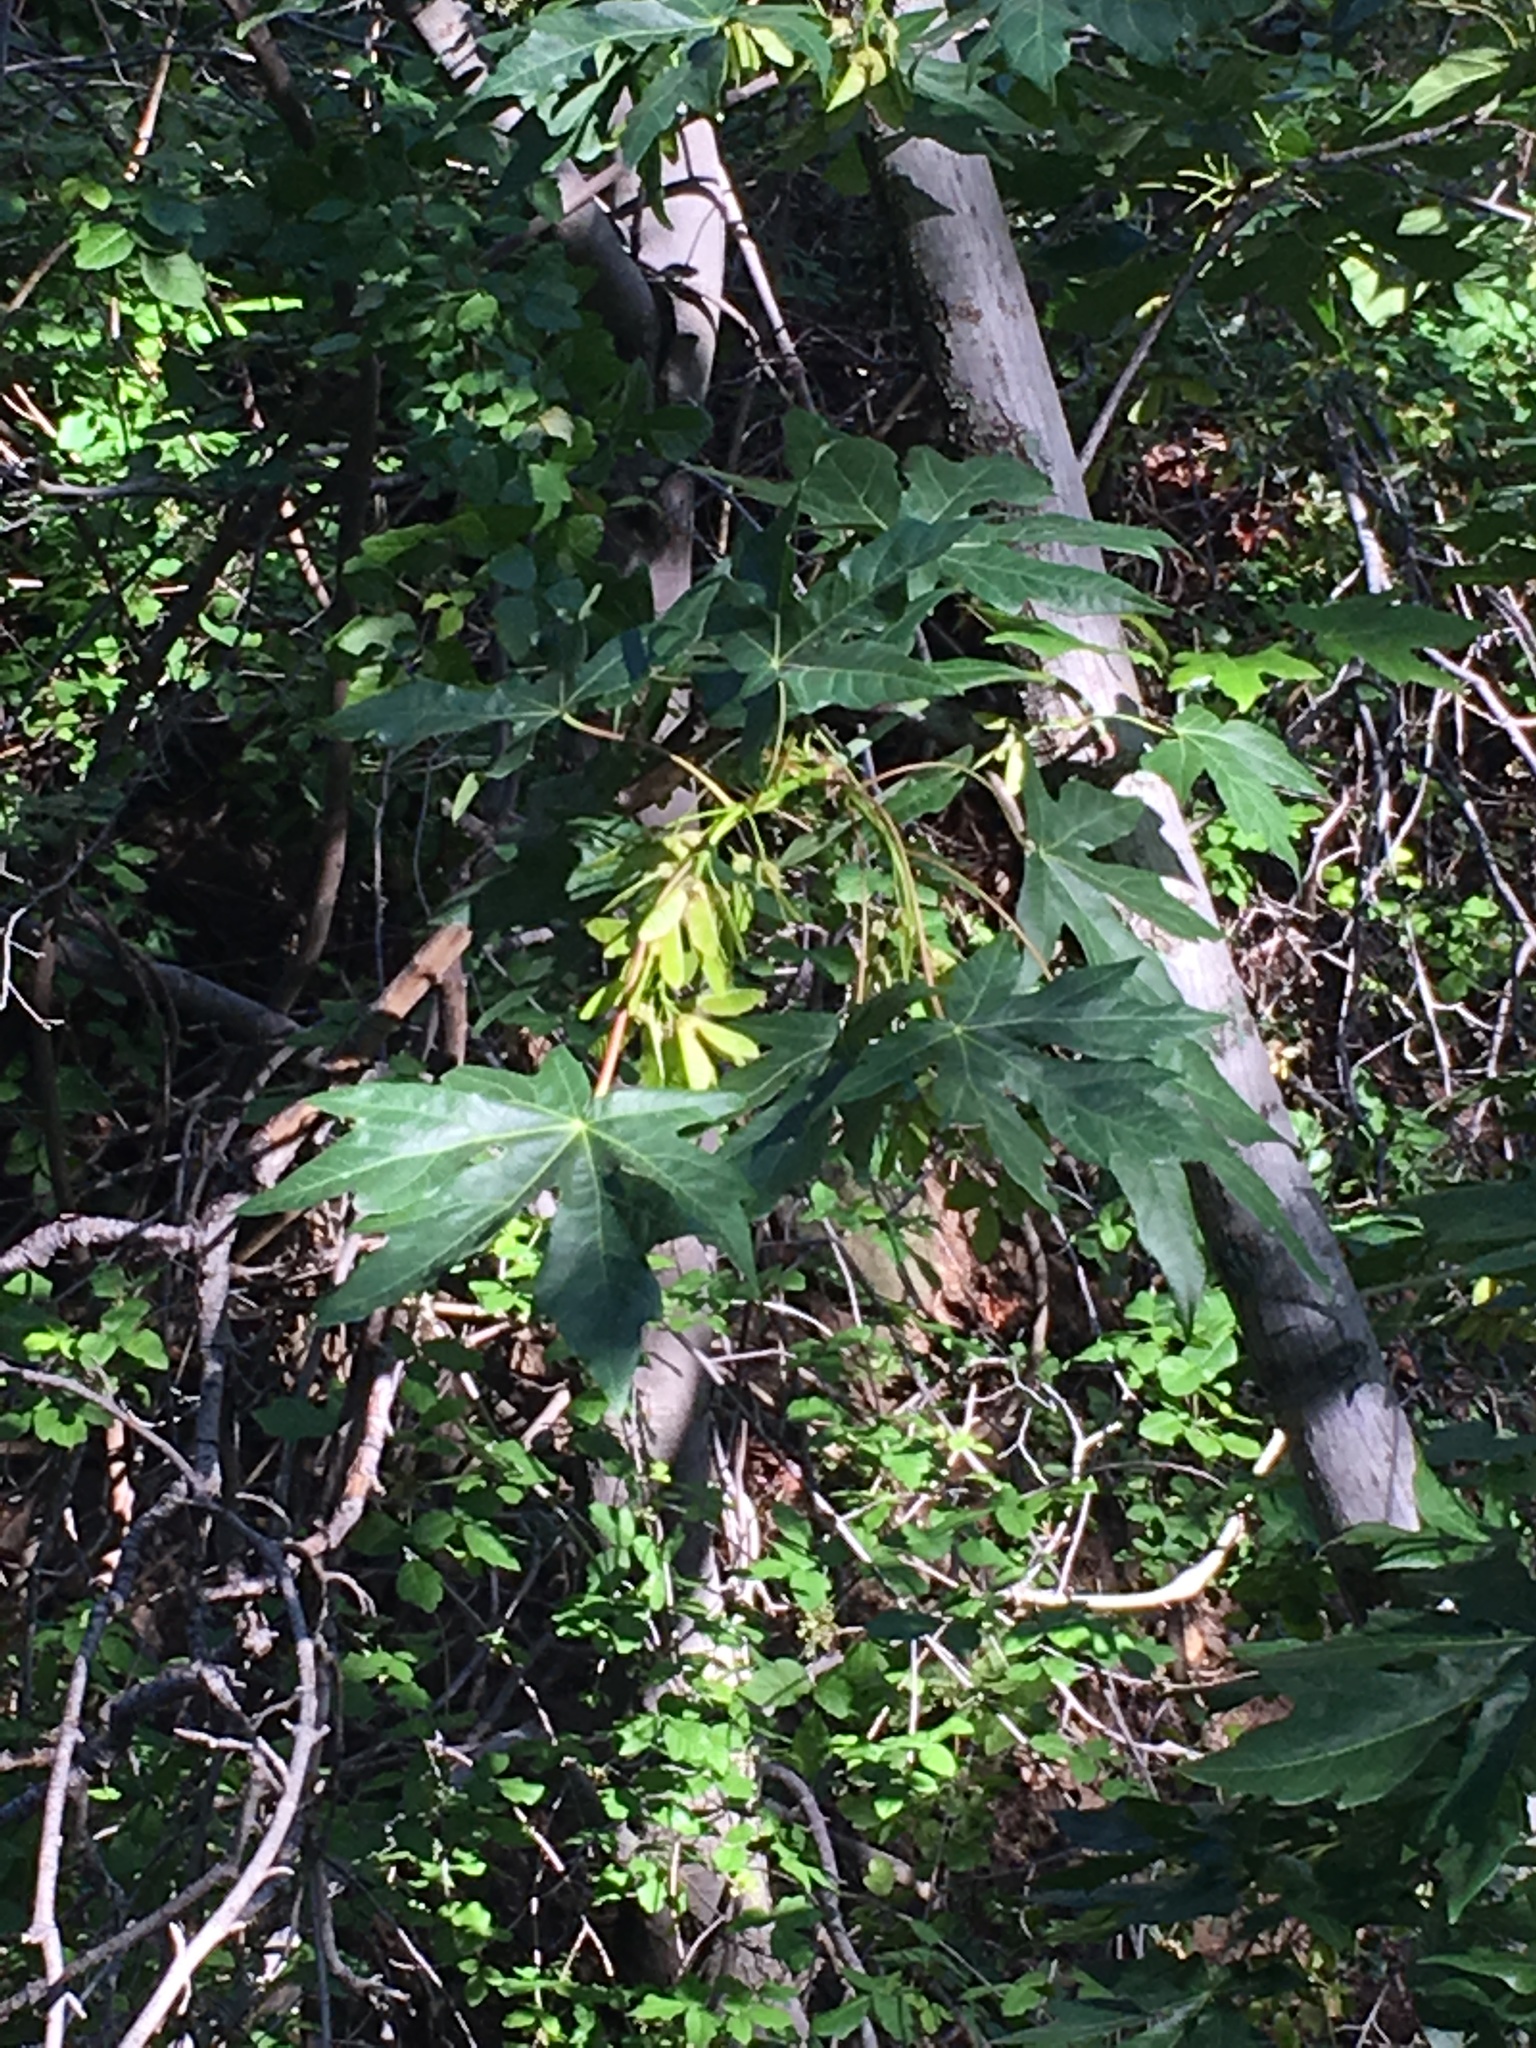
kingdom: Plantae
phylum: Tracheophyta
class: Magnoliopsida
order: Sapindales
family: Sapindaceae
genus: Acer
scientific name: Acer macrophyllum
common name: Oregon maple
